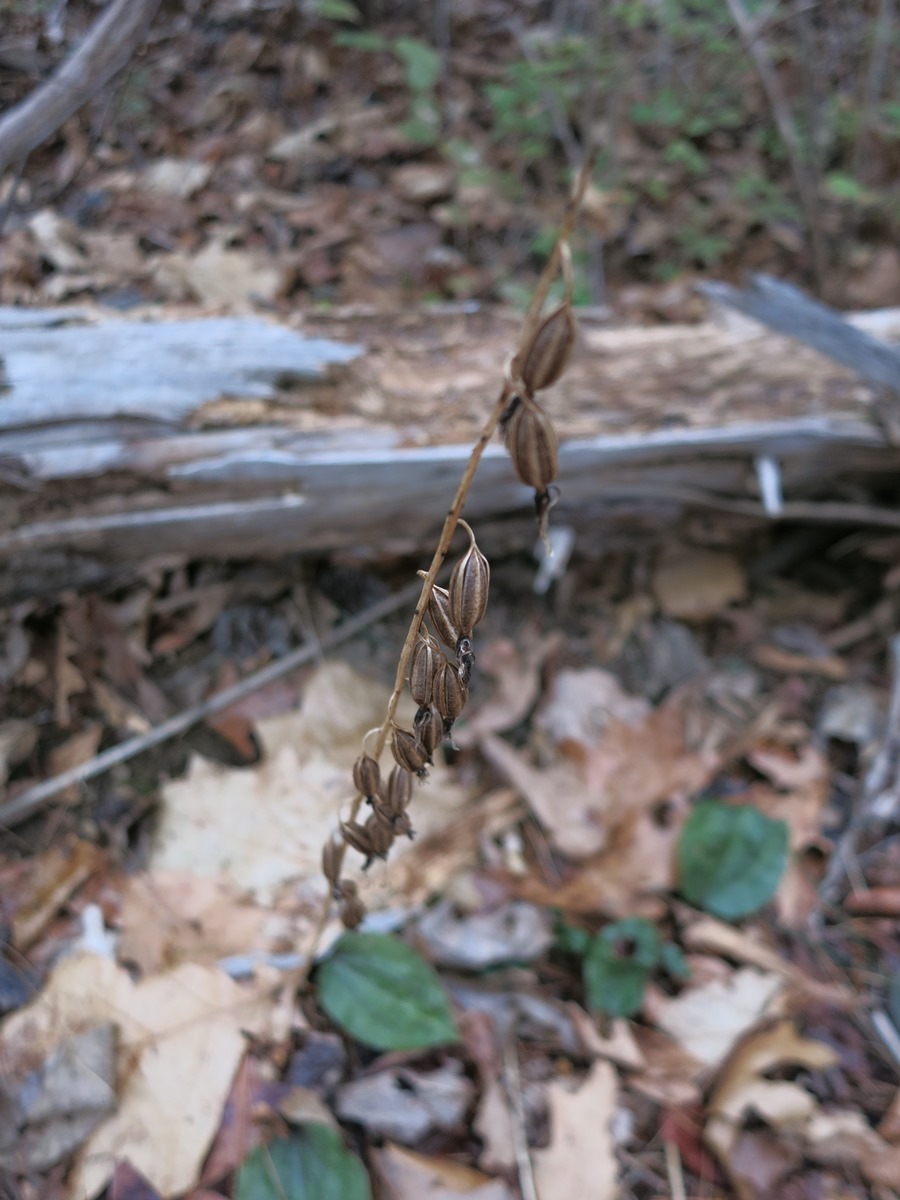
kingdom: Plantae
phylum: Tracheophyta
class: Liliopsida
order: Asparagales
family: Orchidaceae
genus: Tipularia
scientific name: Tipularia discolor
